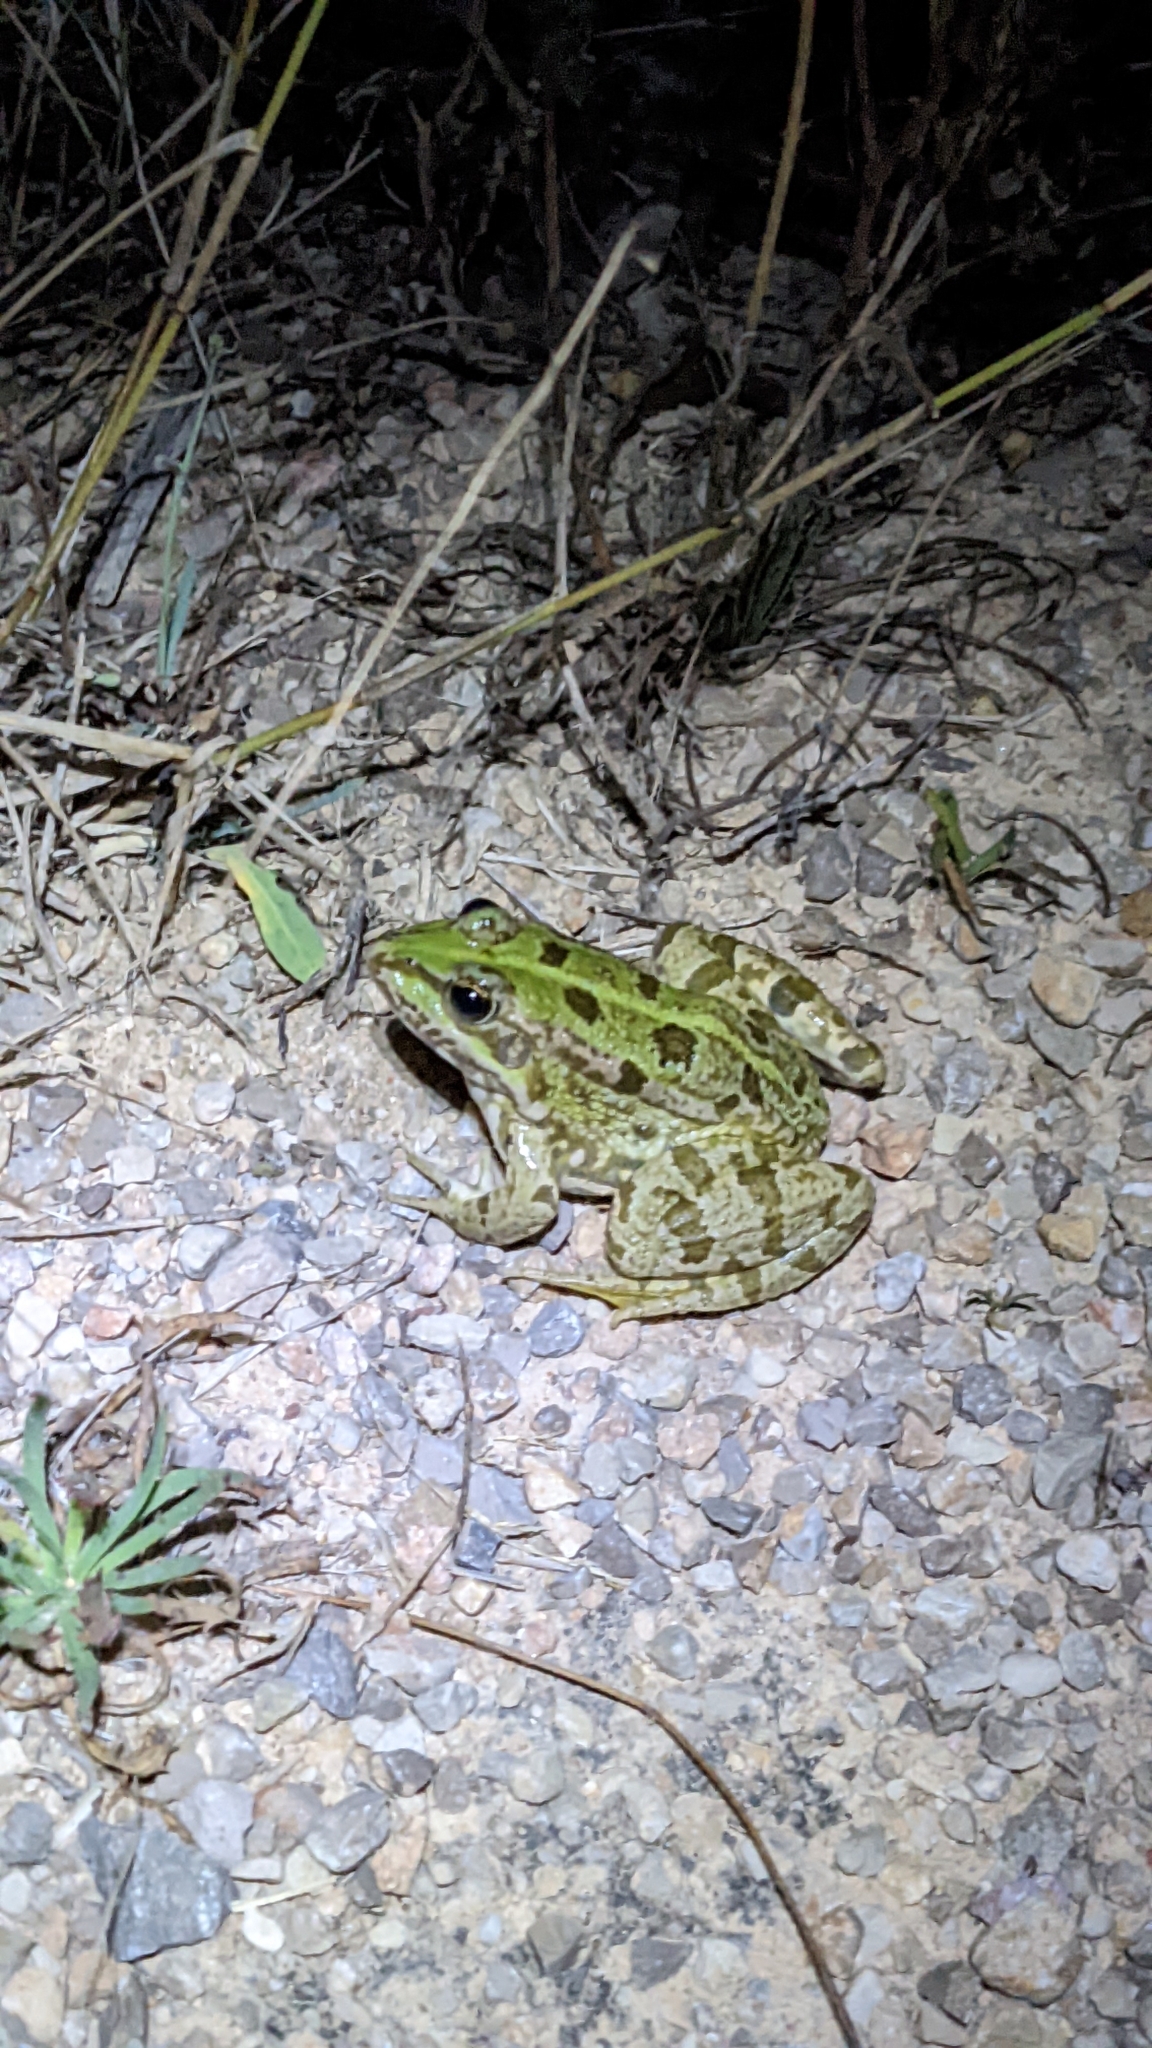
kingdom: Animalia
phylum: Chordata
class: Amphibia
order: Anura
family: Ranidae
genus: Pelophylax
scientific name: Pelophylax perezi
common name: Perez's frog
